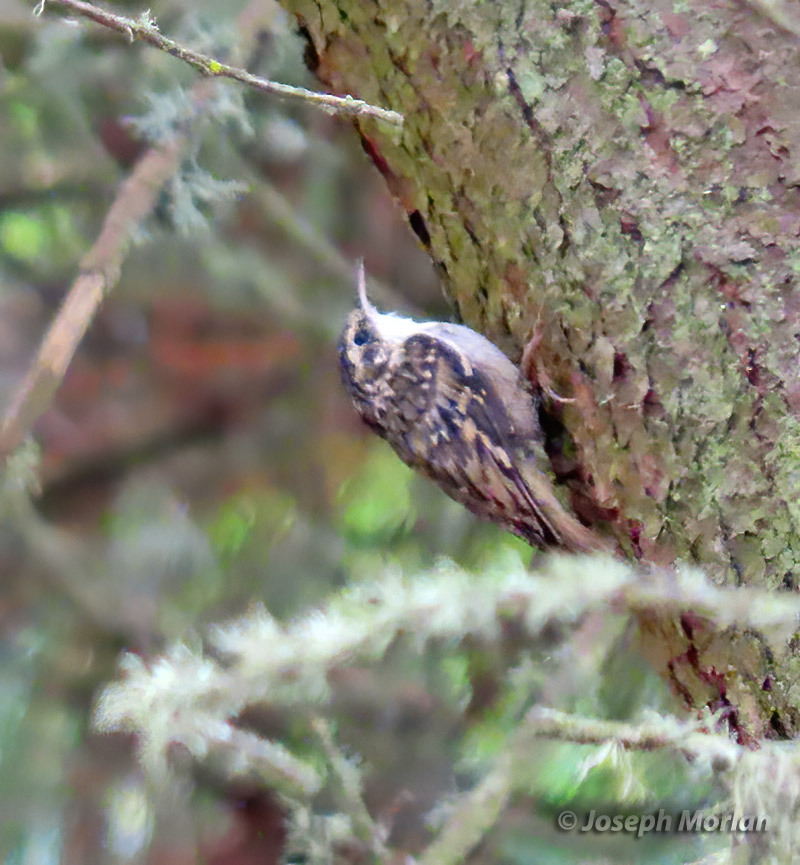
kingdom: Animalia
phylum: Chordata
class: Aves
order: Passeriformes
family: Certhiidae
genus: Certhia
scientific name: Certhia americana
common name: Brown creeper
